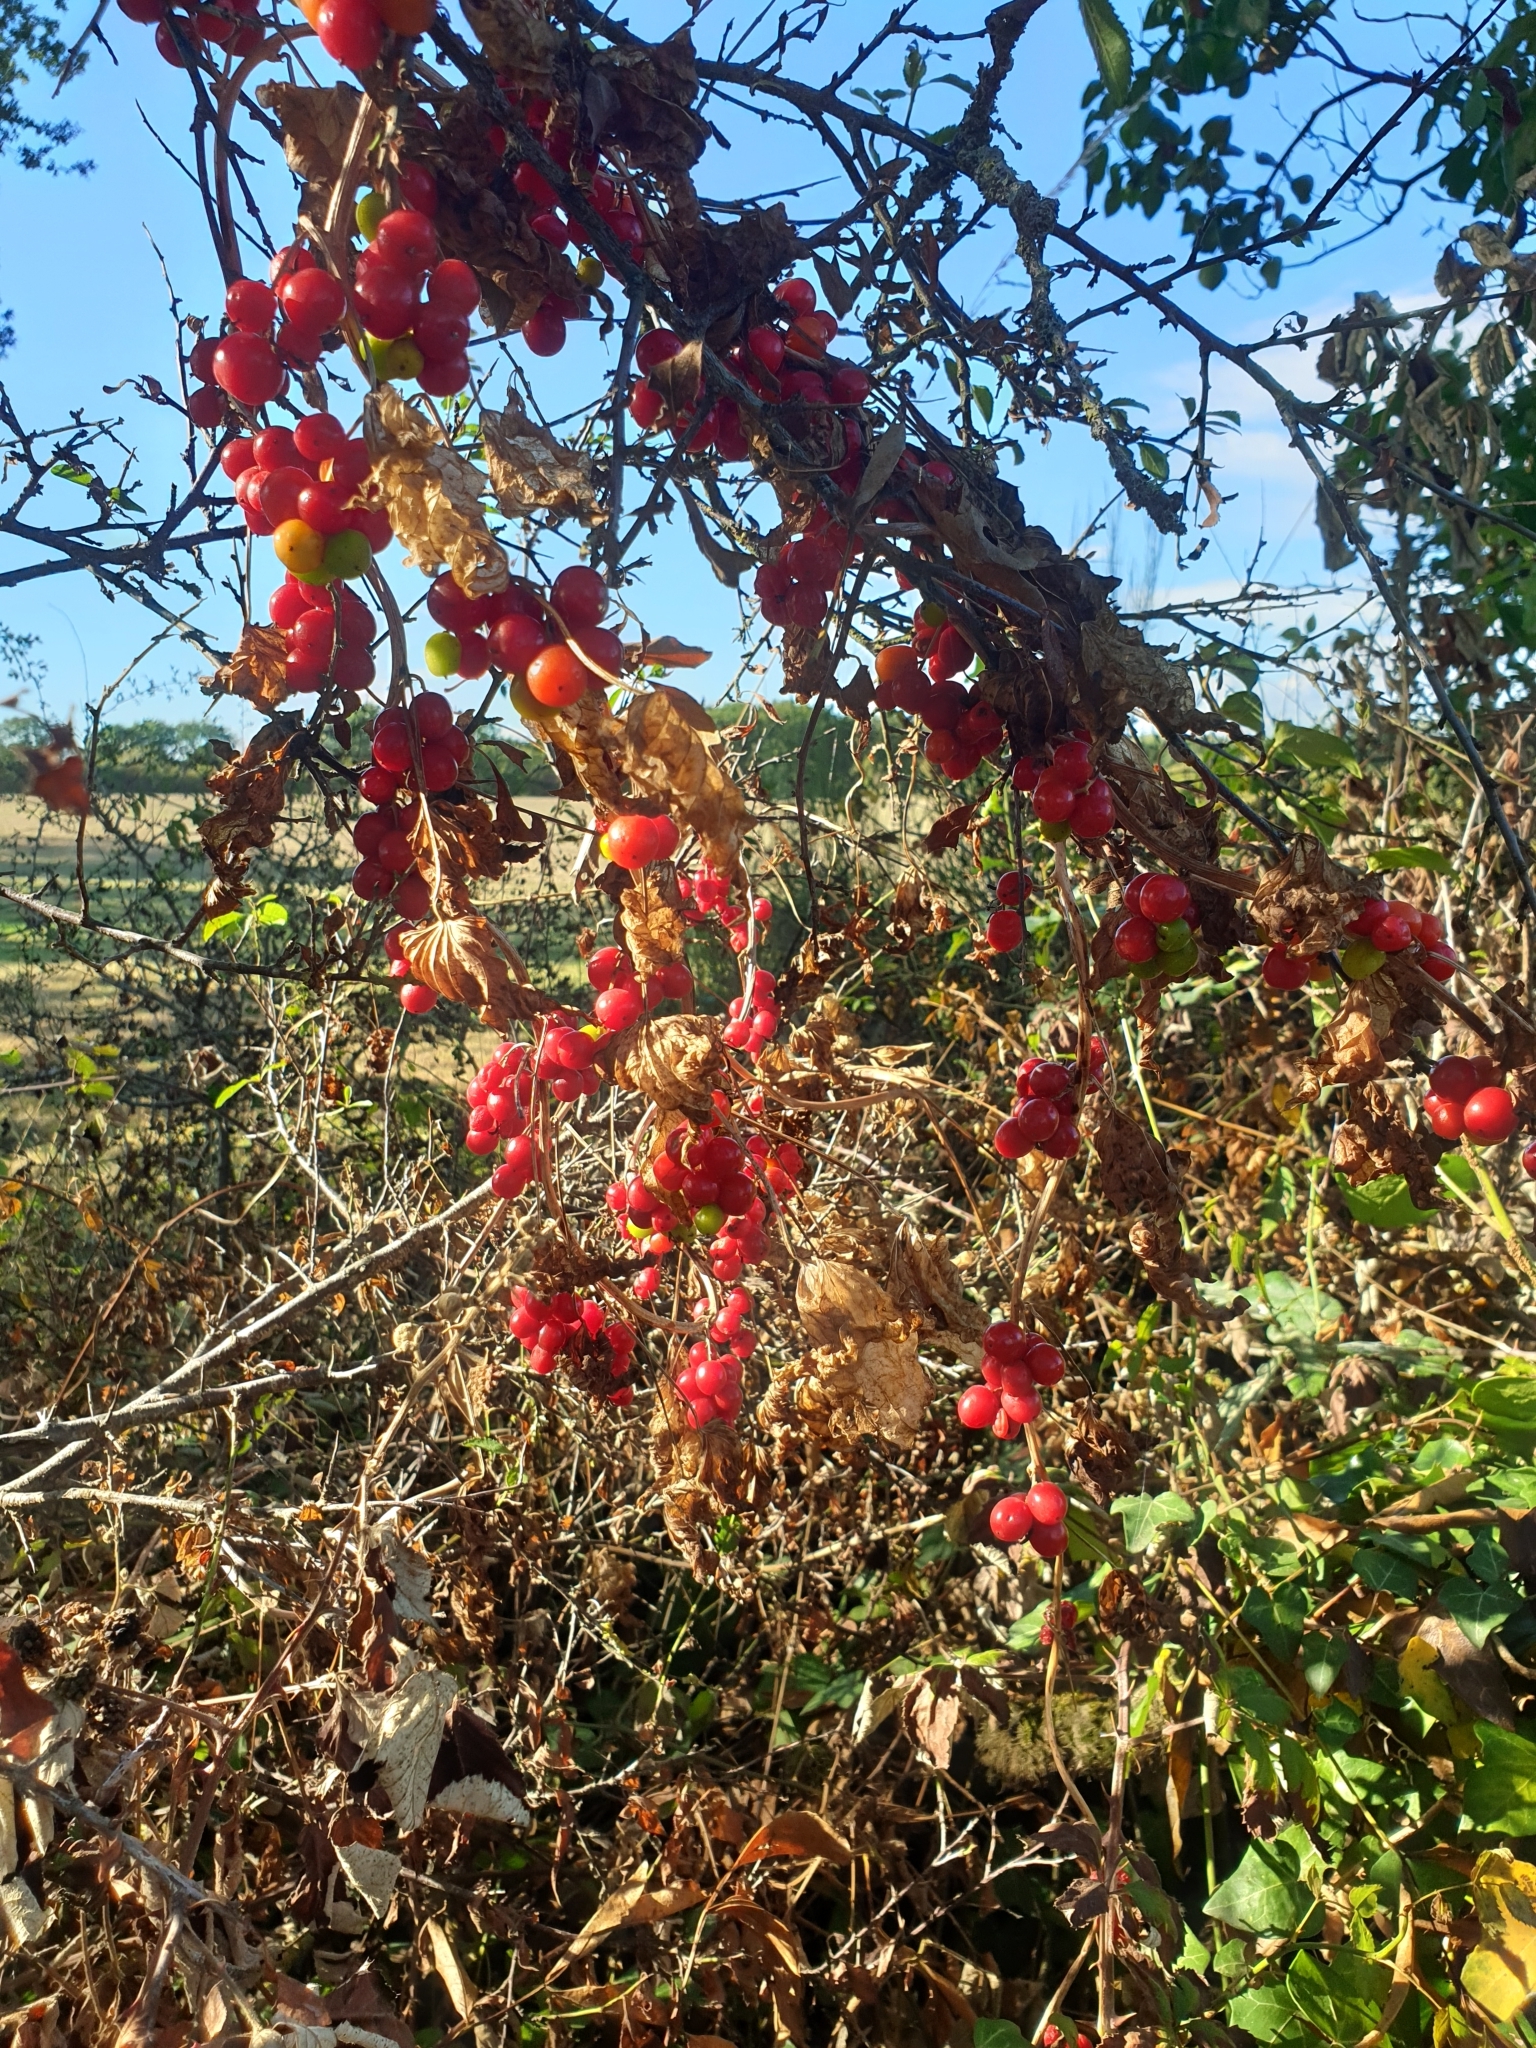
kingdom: Plantae
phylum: Tracheophyta
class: Liliopsida
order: Dioscoreales
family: Dioscoreaceae
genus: Dioscorea
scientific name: Dioscorea communis
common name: Black-bindweed
